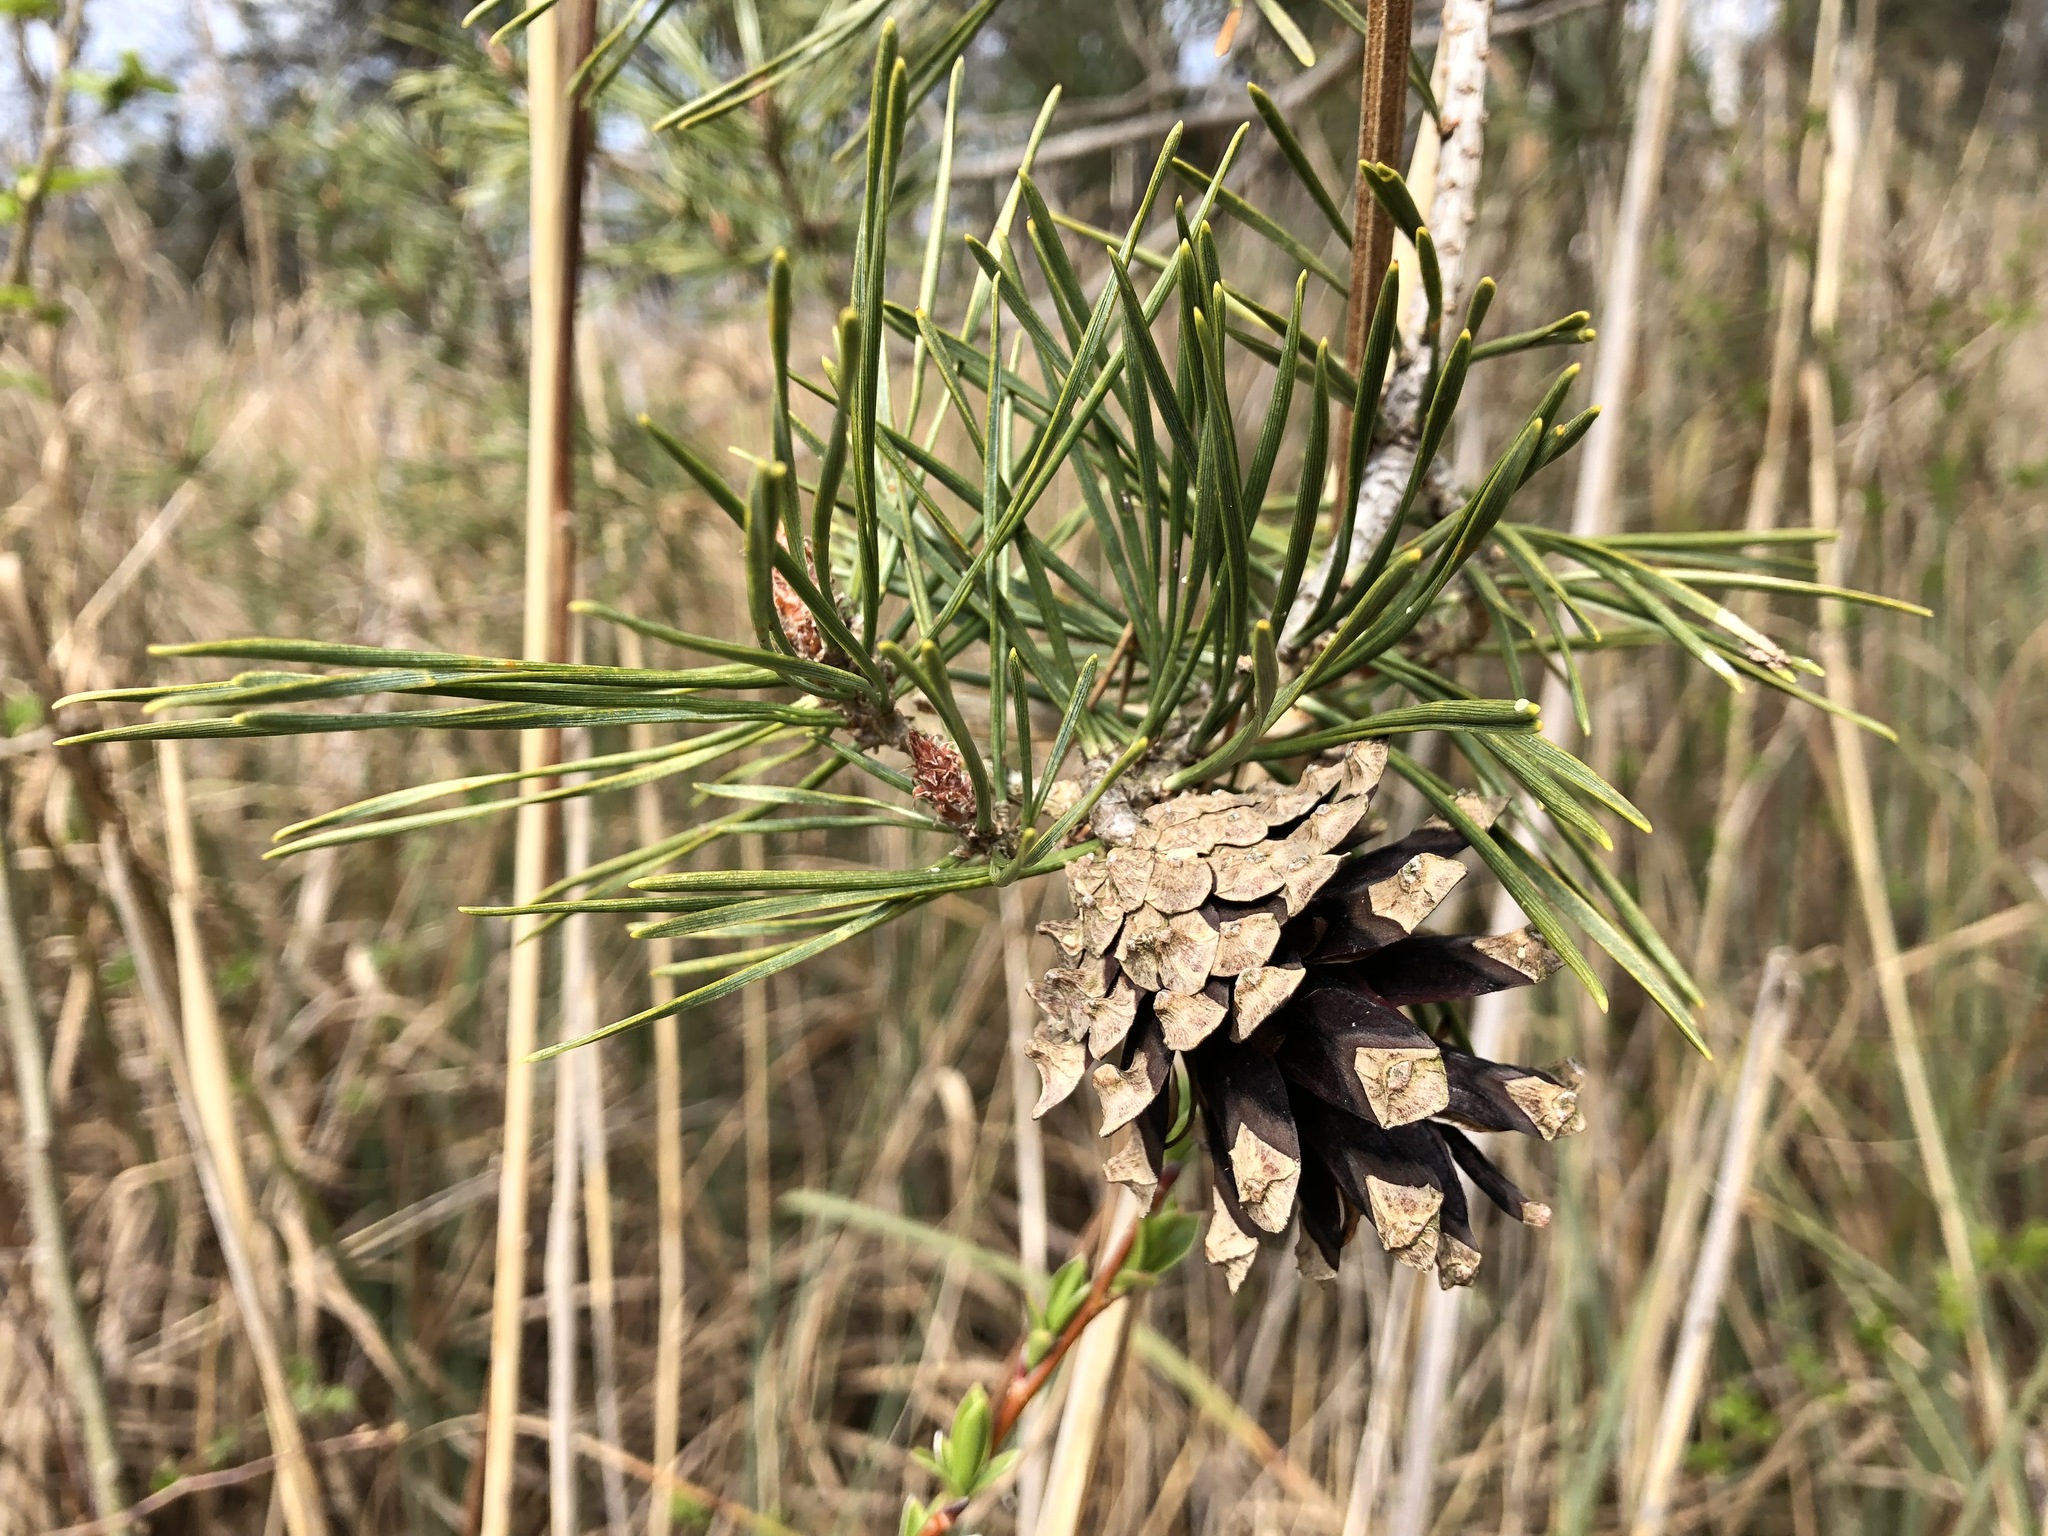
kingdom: Plantae
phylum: Tracheophyta
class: Pinopsida
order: Pinales
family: Pinaceae
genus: Pinus
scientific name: Pinus sylvestris
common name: Scots pine
